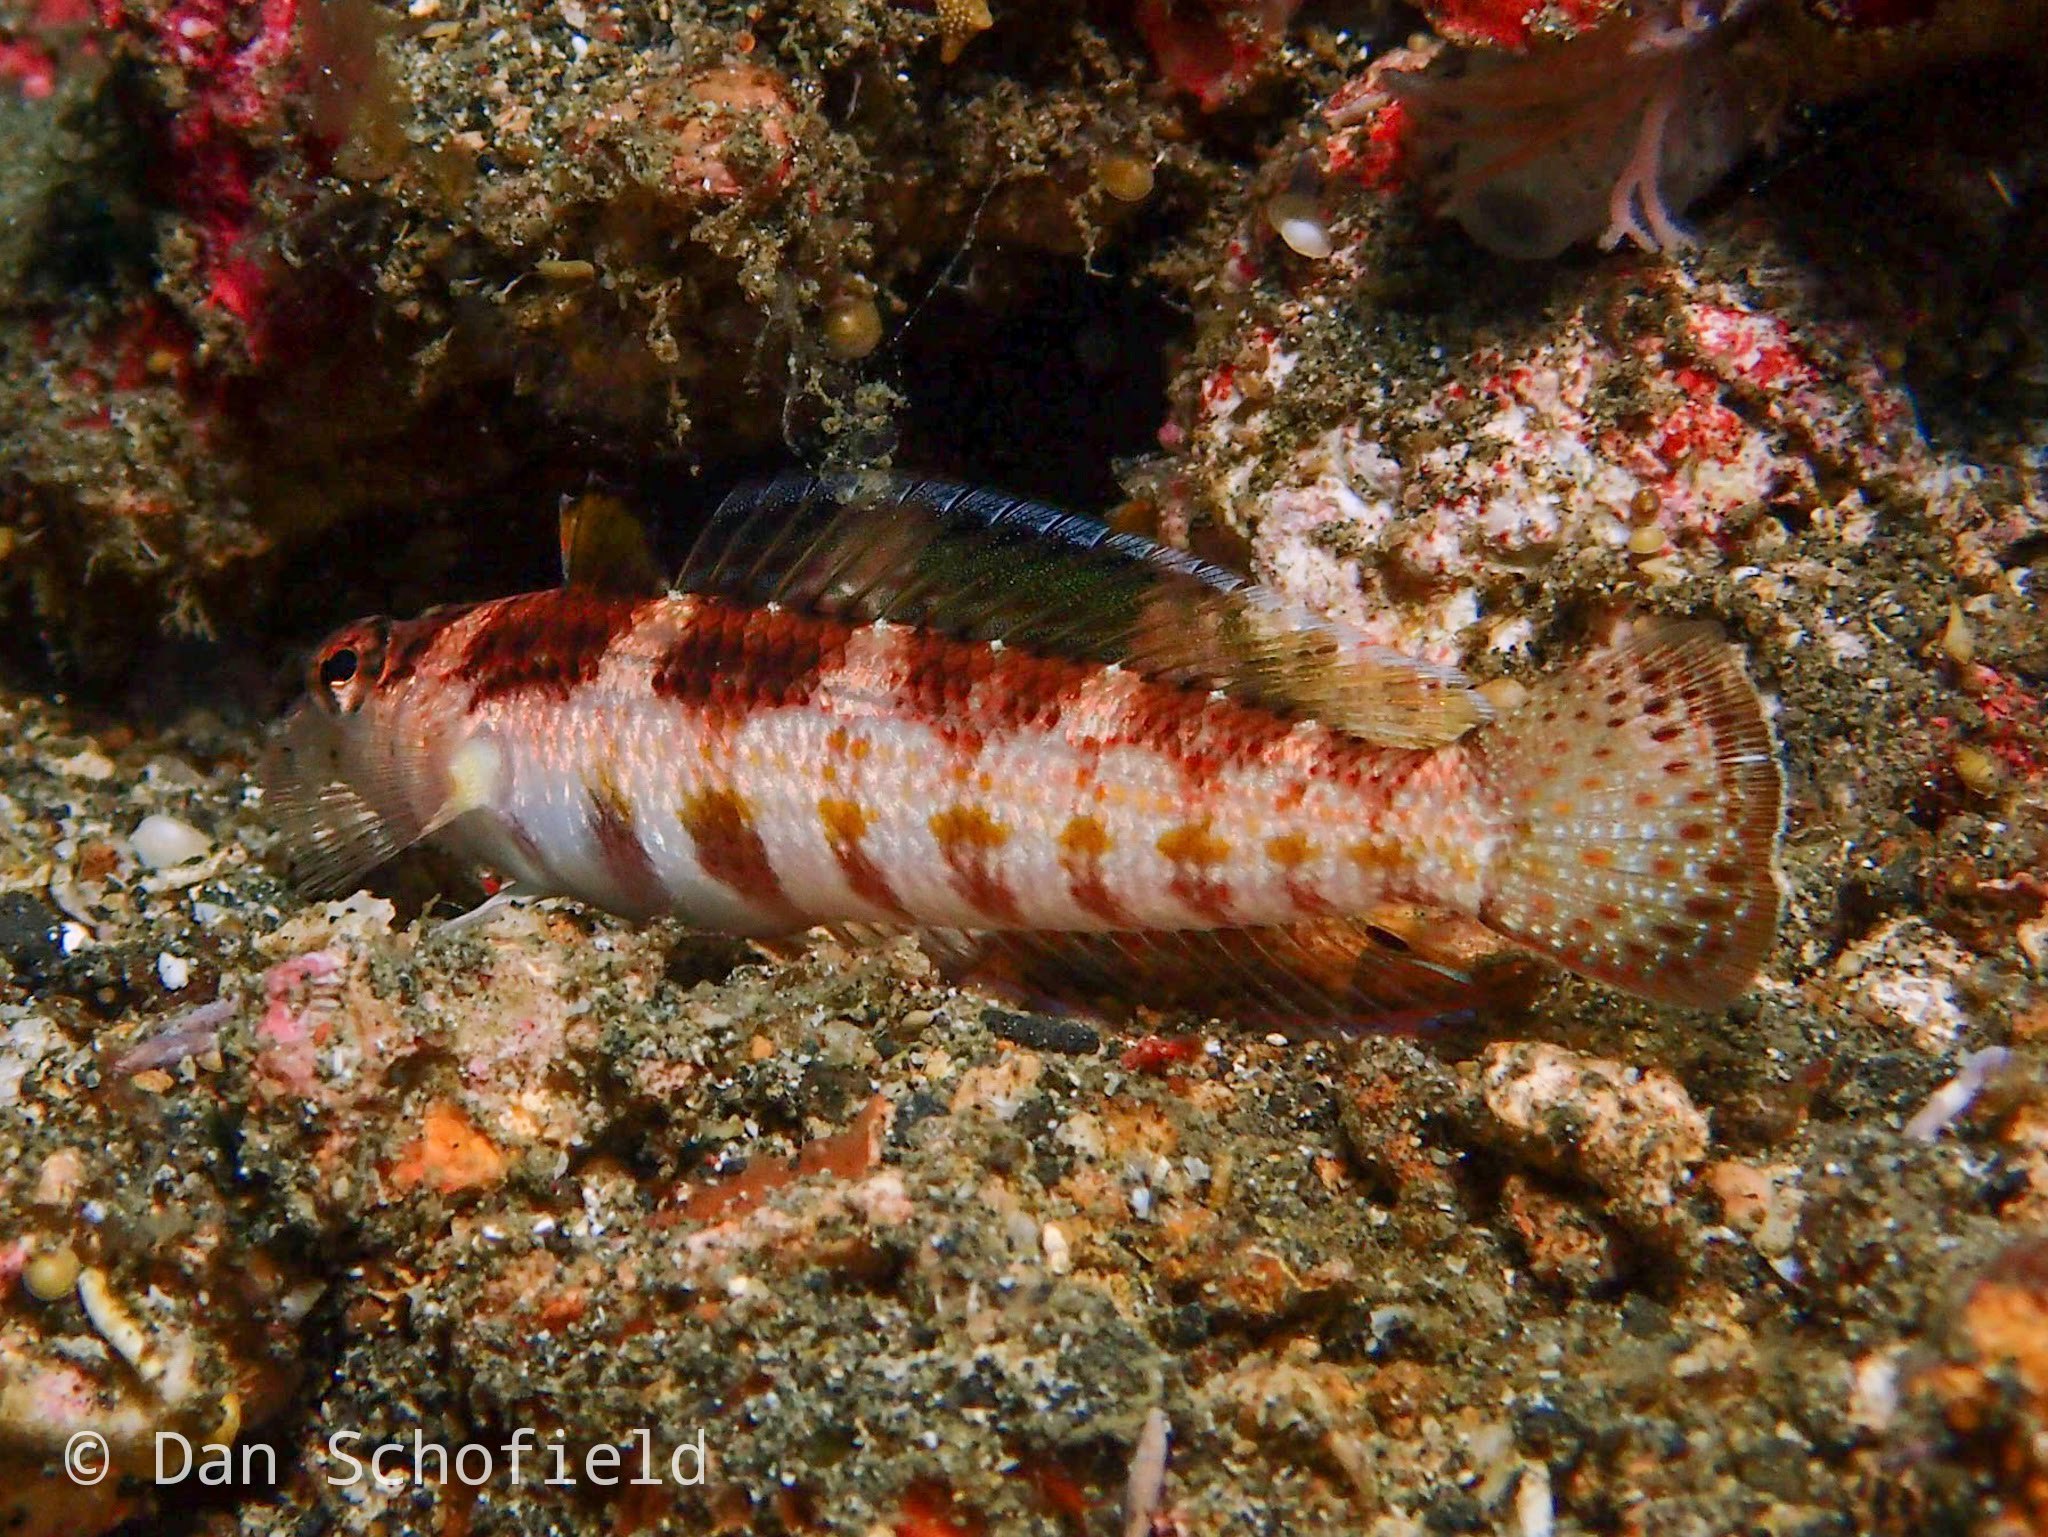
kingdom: Animalia
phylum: Chordata
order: Perciformes
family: Pinguipedidae
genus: Parapercis
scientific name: Parapercis snyderi
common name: U-mark sandperch
